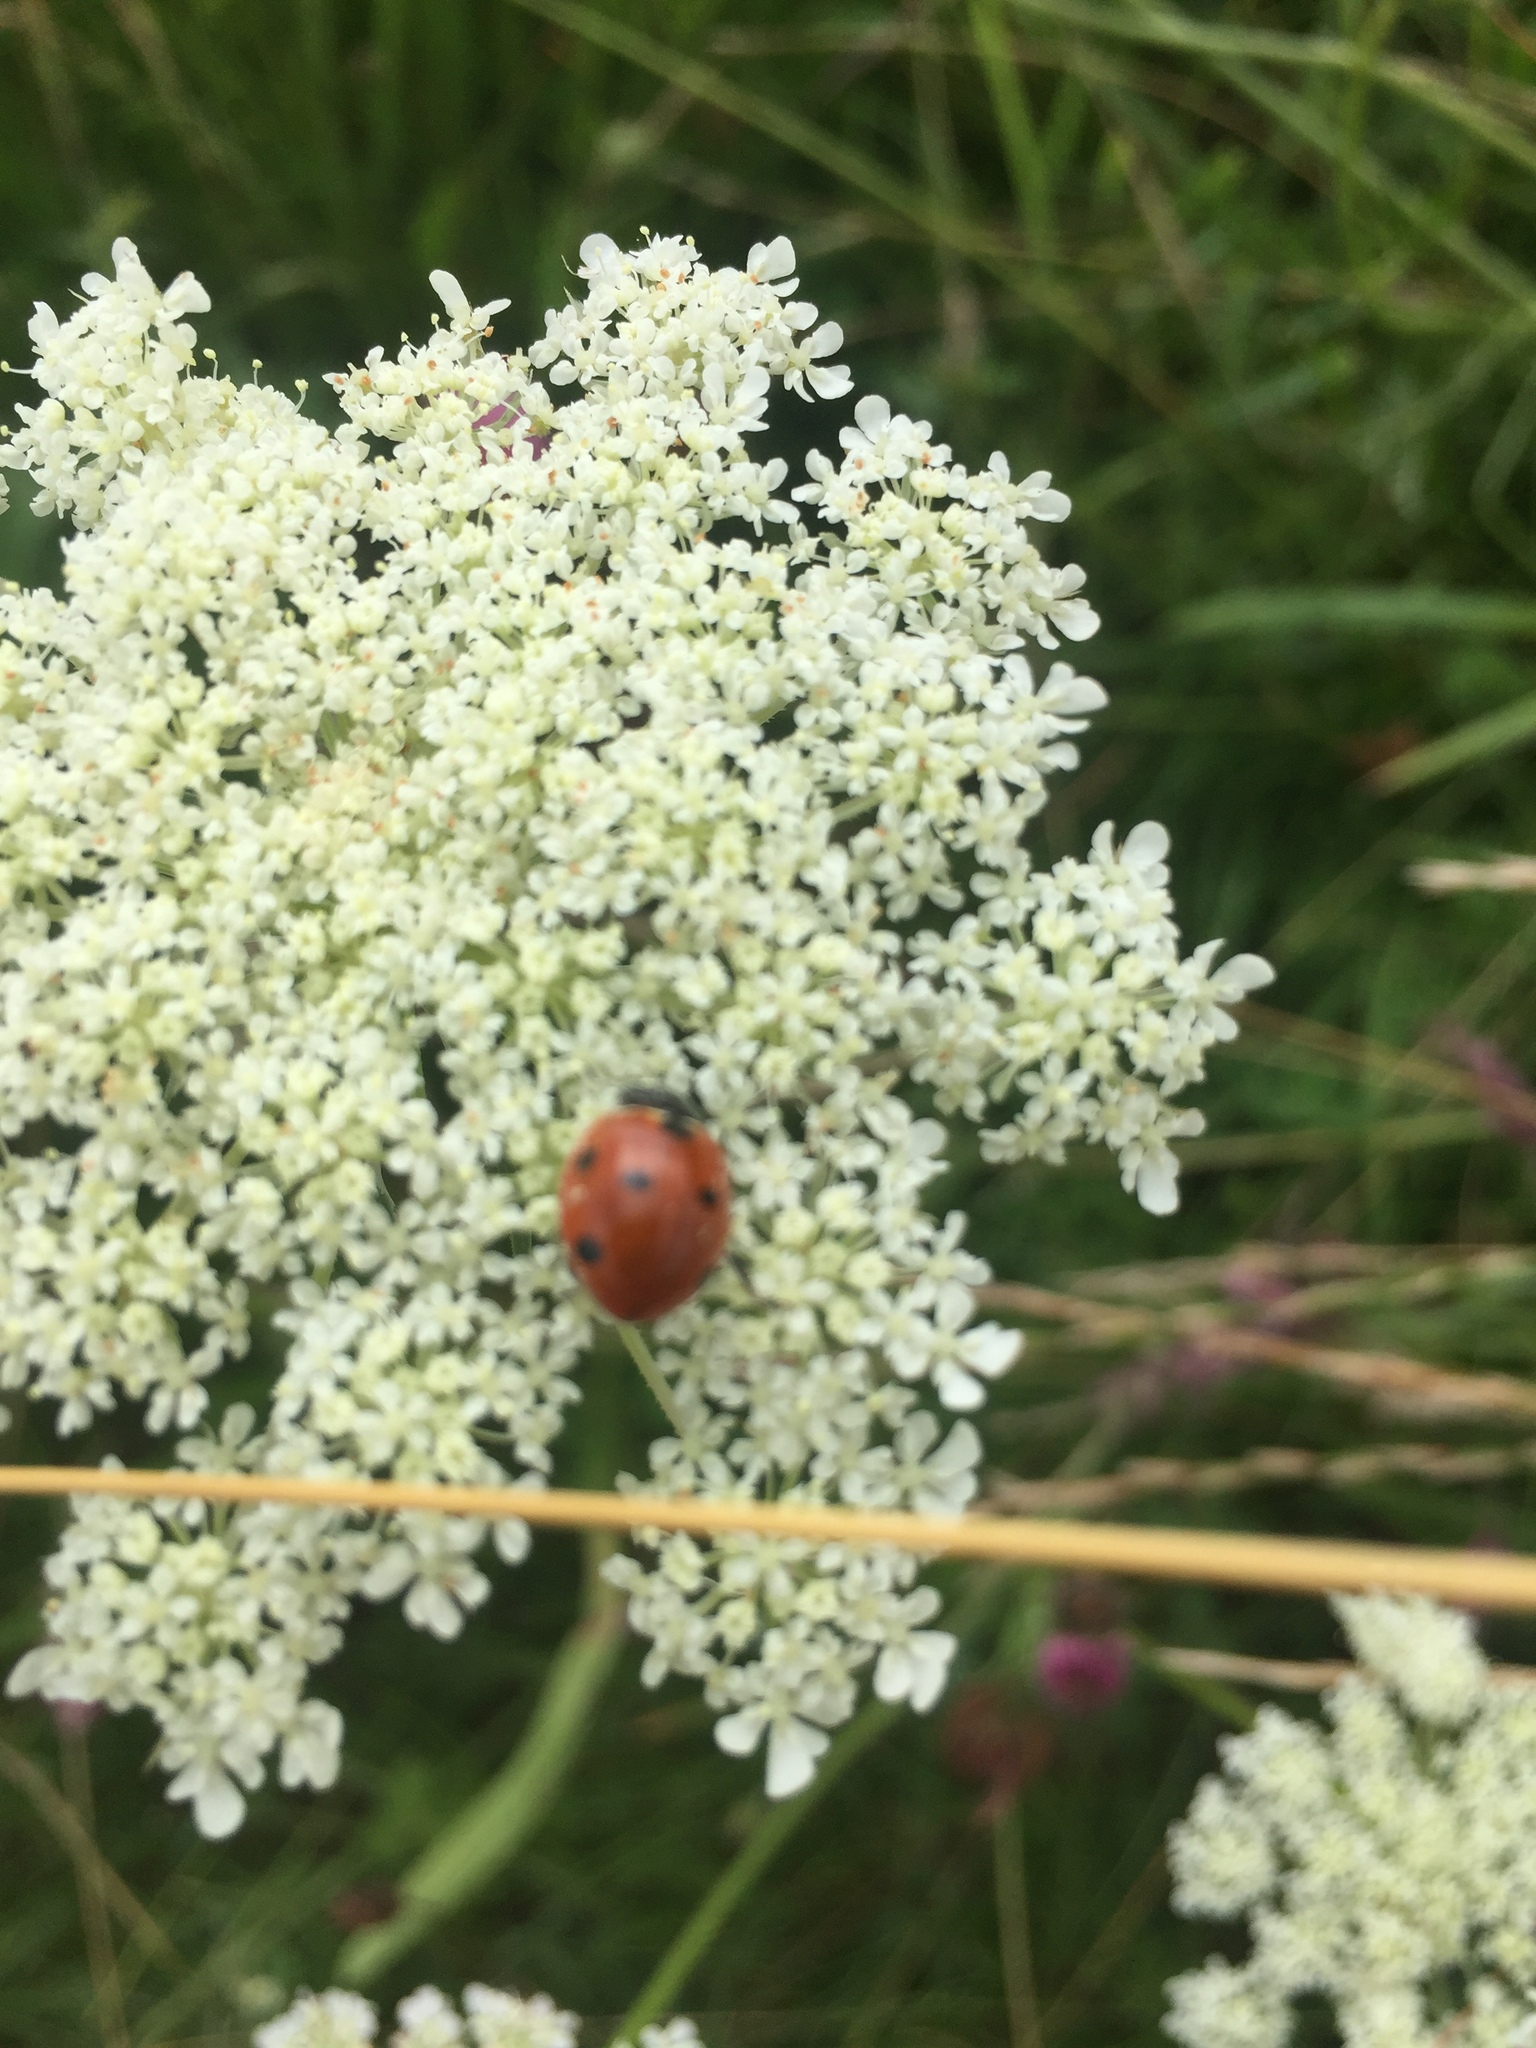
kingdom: Animalia
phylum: Arthropoda
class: Insecta
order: Coleoptera
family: Coccinellidae
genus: Coccinella
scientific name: Coccinella septempunctata
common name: Sevenspotted lady beetle
